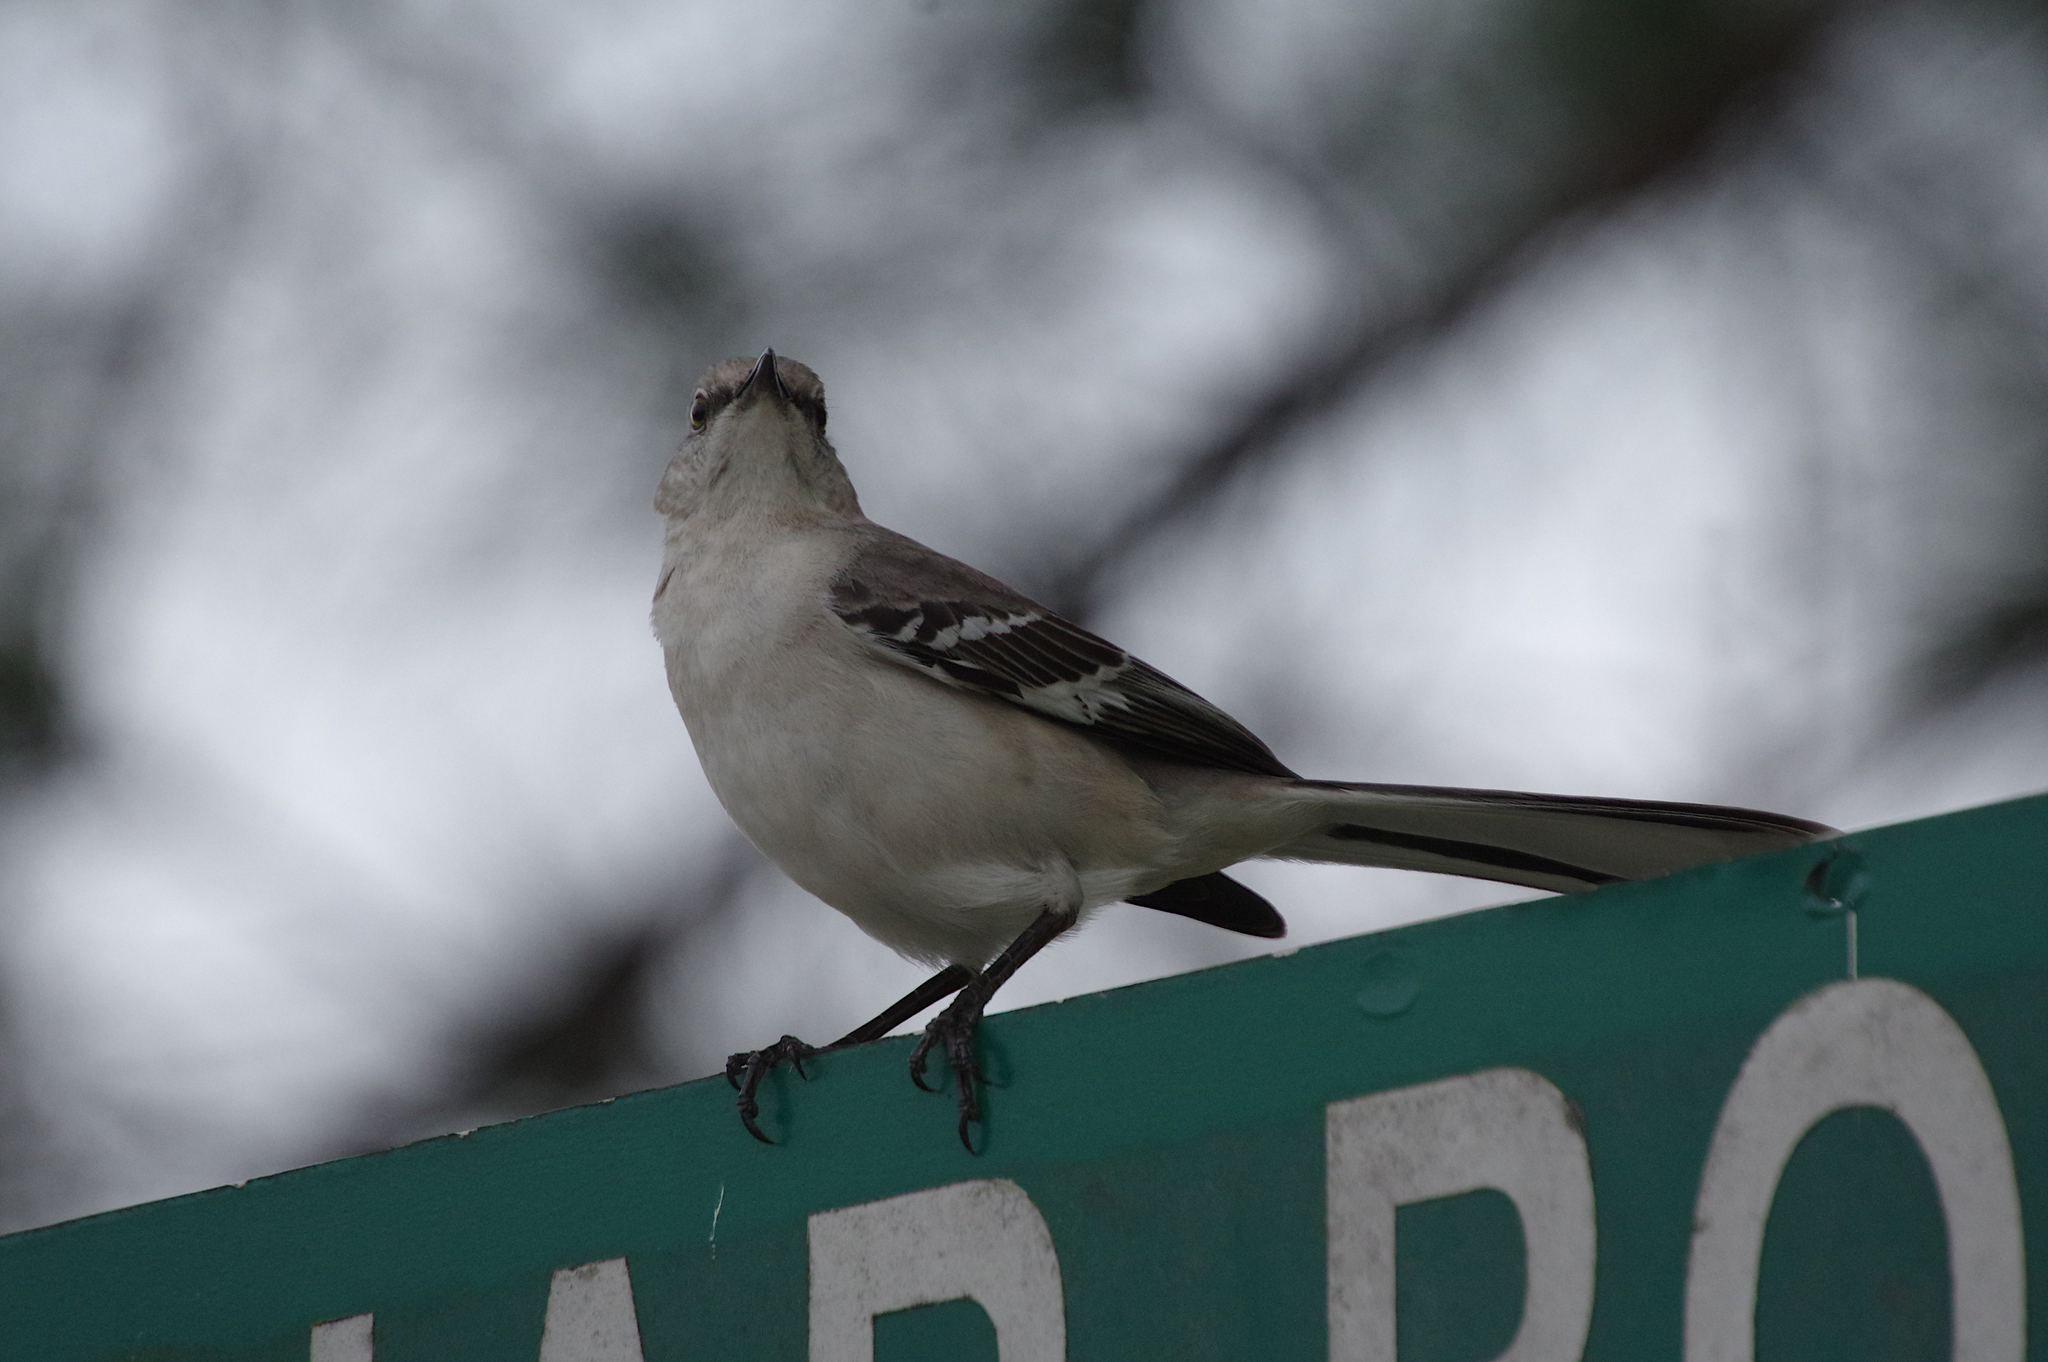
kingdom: Animalia
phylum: Chordata
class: Aves
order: Passeriformes
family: Mimidae
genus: Mimus
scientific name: Mimus polyglottos
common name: Northern mockingbird
